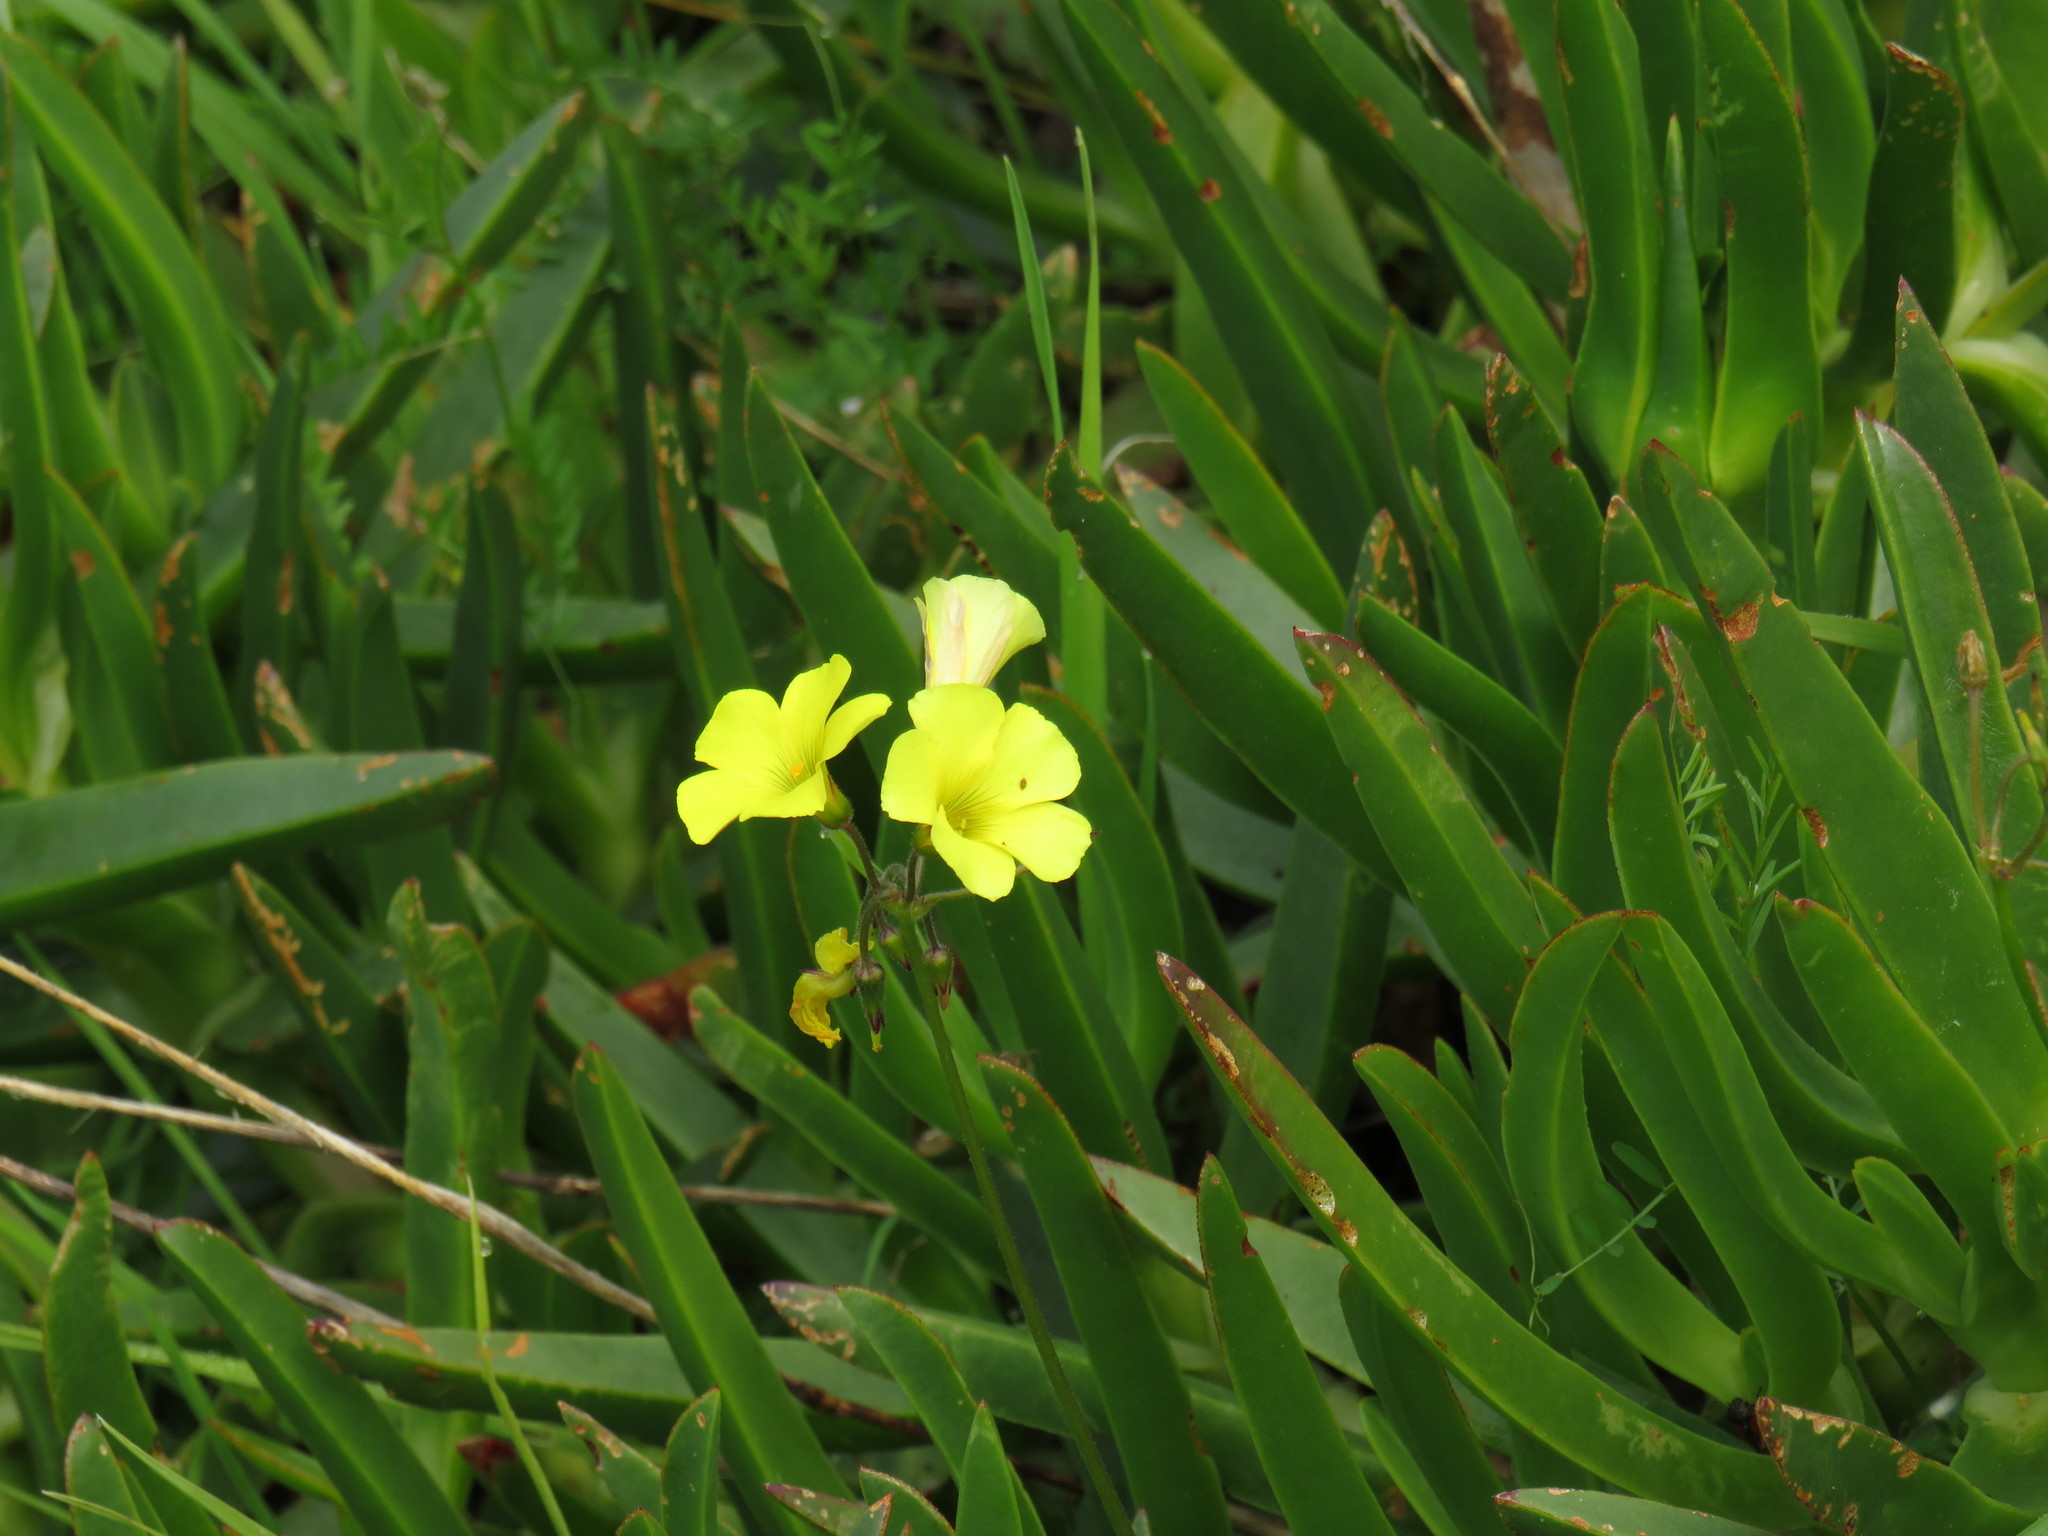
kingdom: Plantae
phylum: Tracheophyta
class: Magnoliopsida
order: Oxalidales
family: Oxalidaceae
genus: Oxalis
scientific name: Oxalis pes-caprae
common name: Bermuda-buttercup
